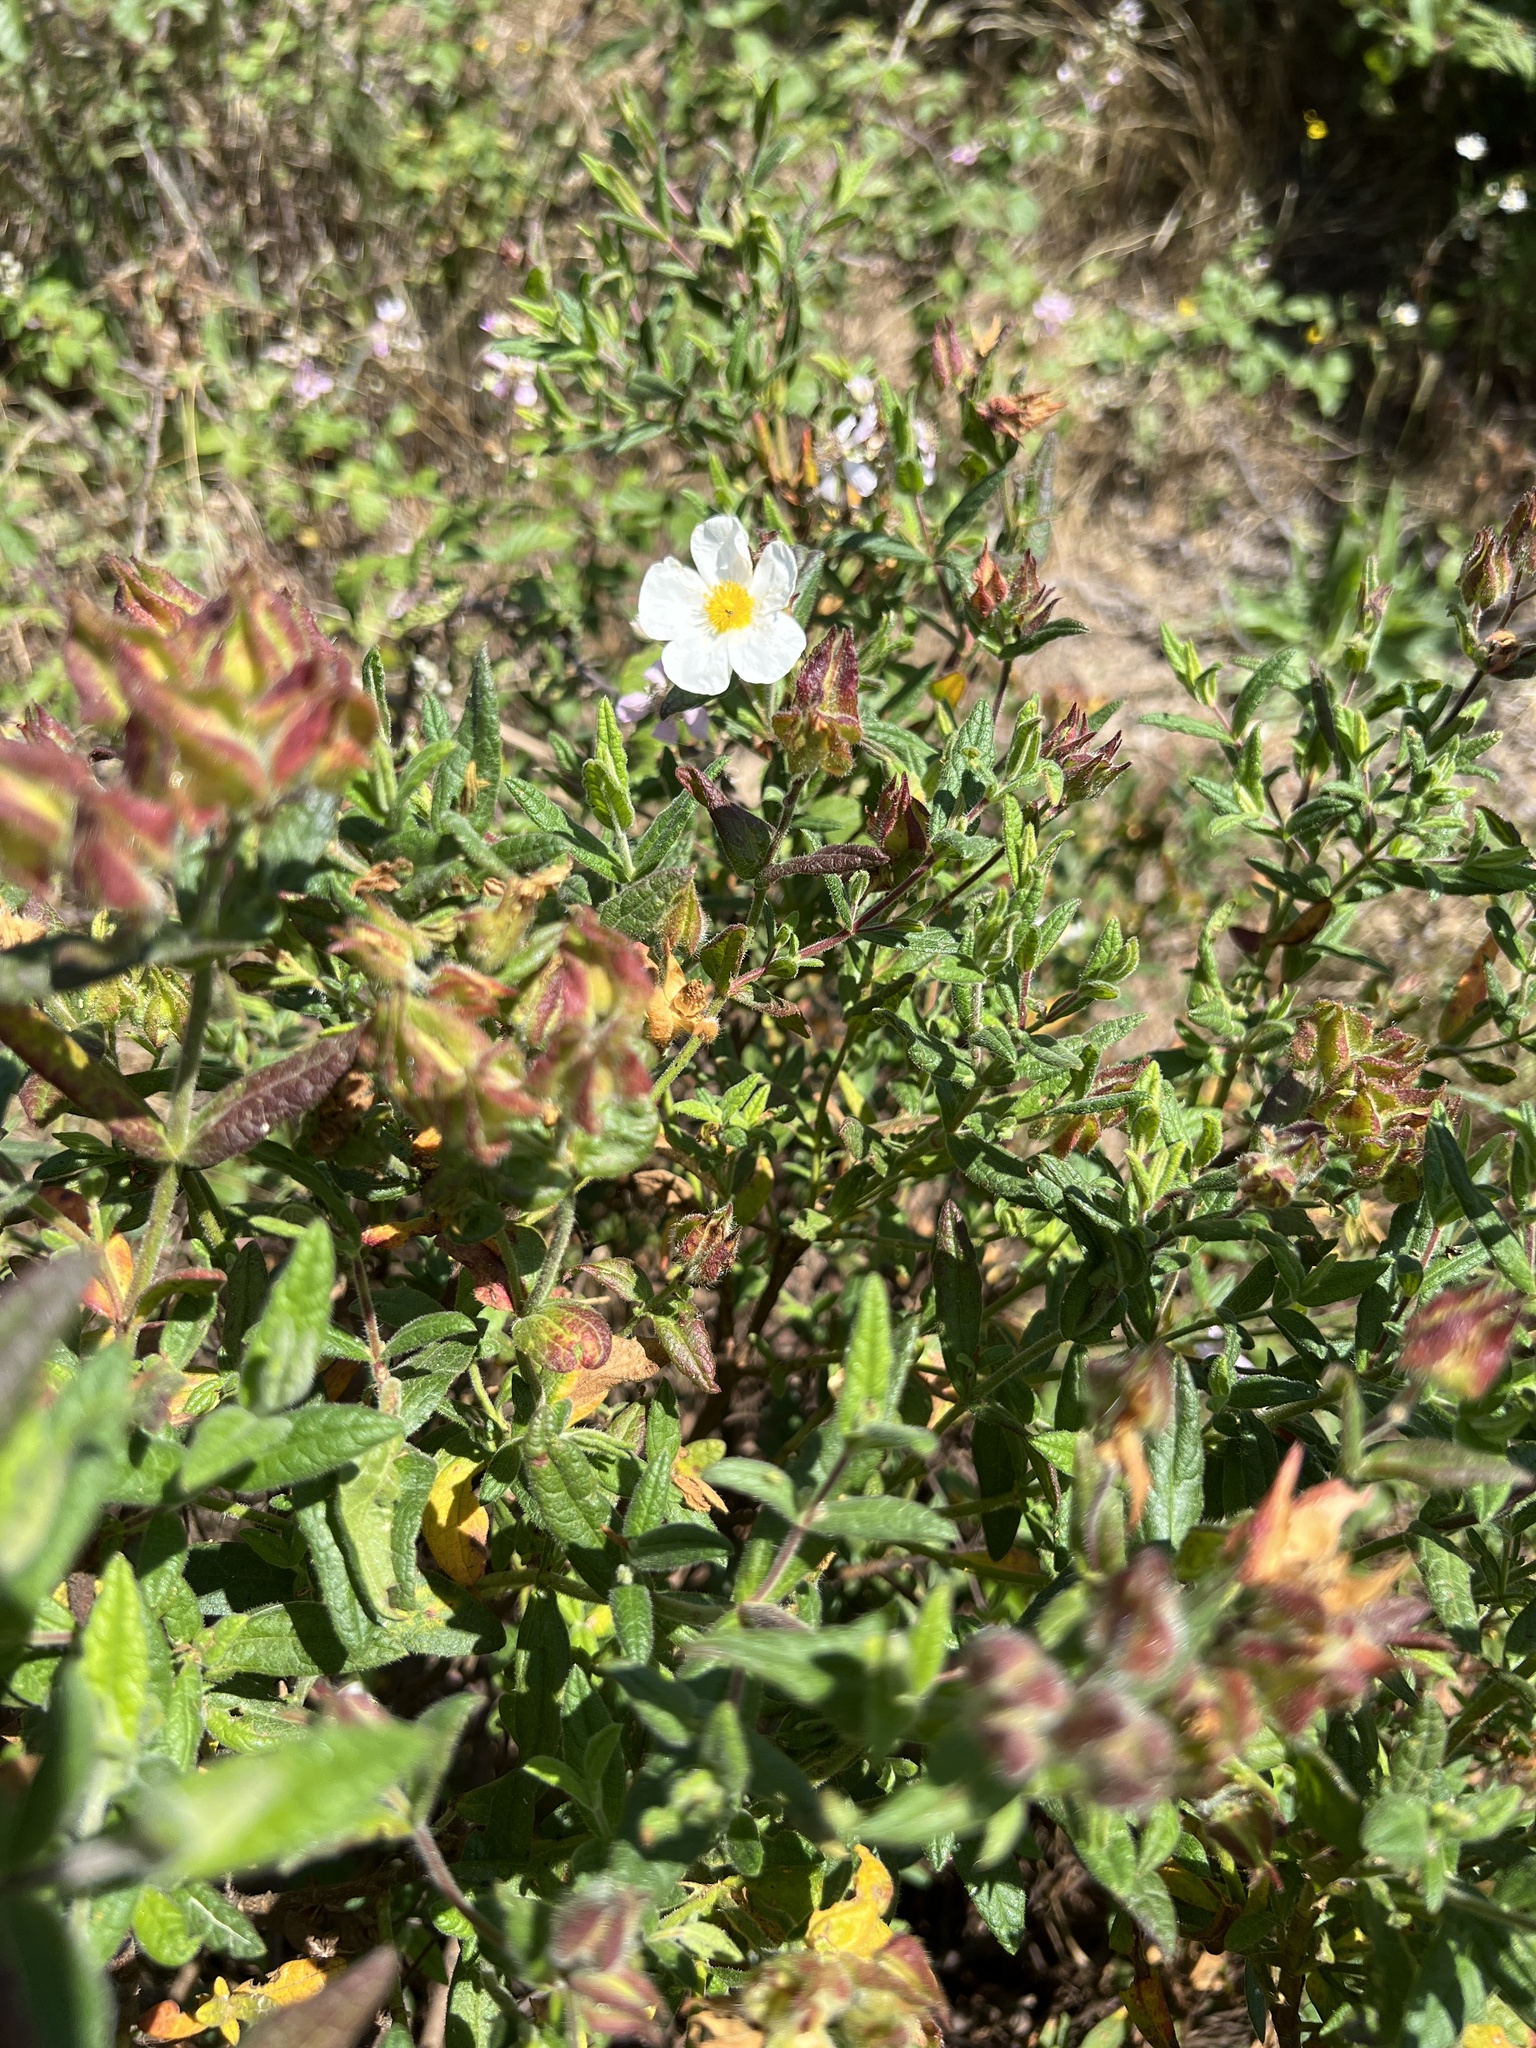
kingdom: Plantae
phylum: Tracheophyta
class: Magnoliopsida
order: Malvales
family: Cistaceae
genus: Cistus
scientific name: Cistus inflatus
